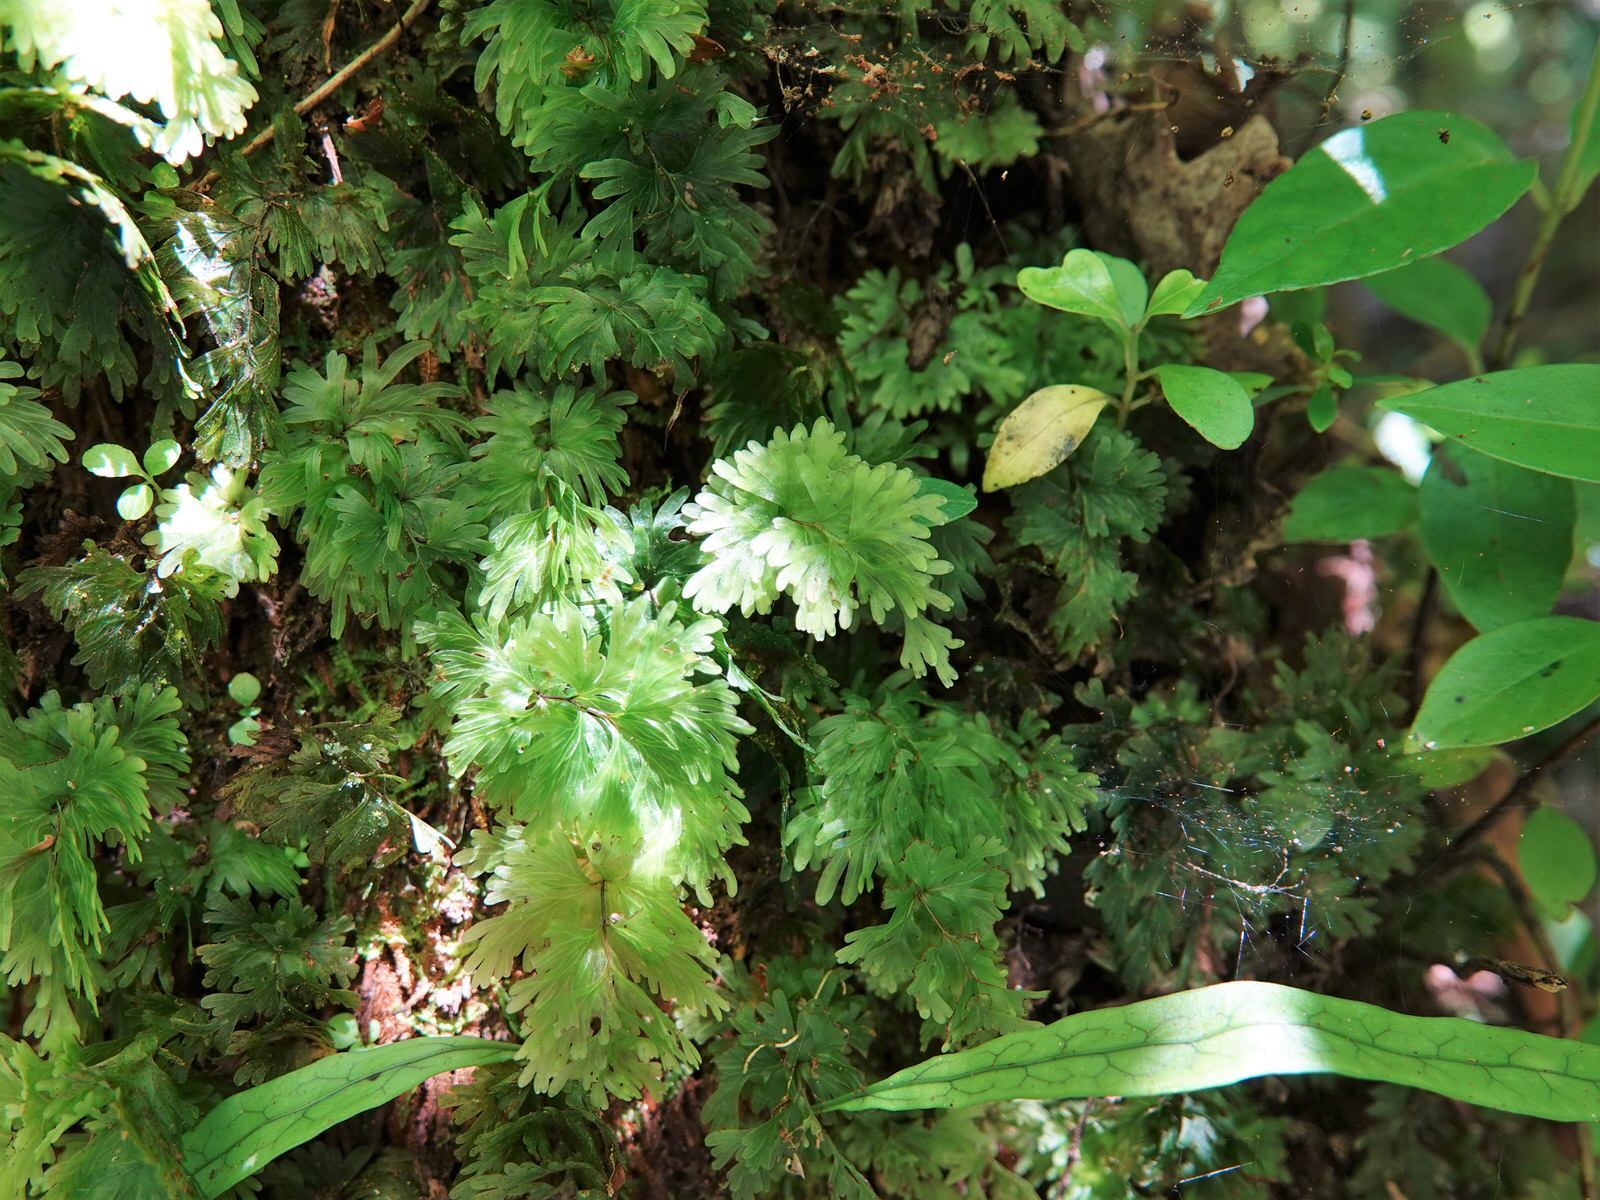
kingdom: Plantae
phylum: Tracheophyta
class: Polypodiopsida
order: Hymenophyllales
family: Hymenophyllaceae
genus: Hymenophyllum
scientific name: Hymenophyllum flabellatum
